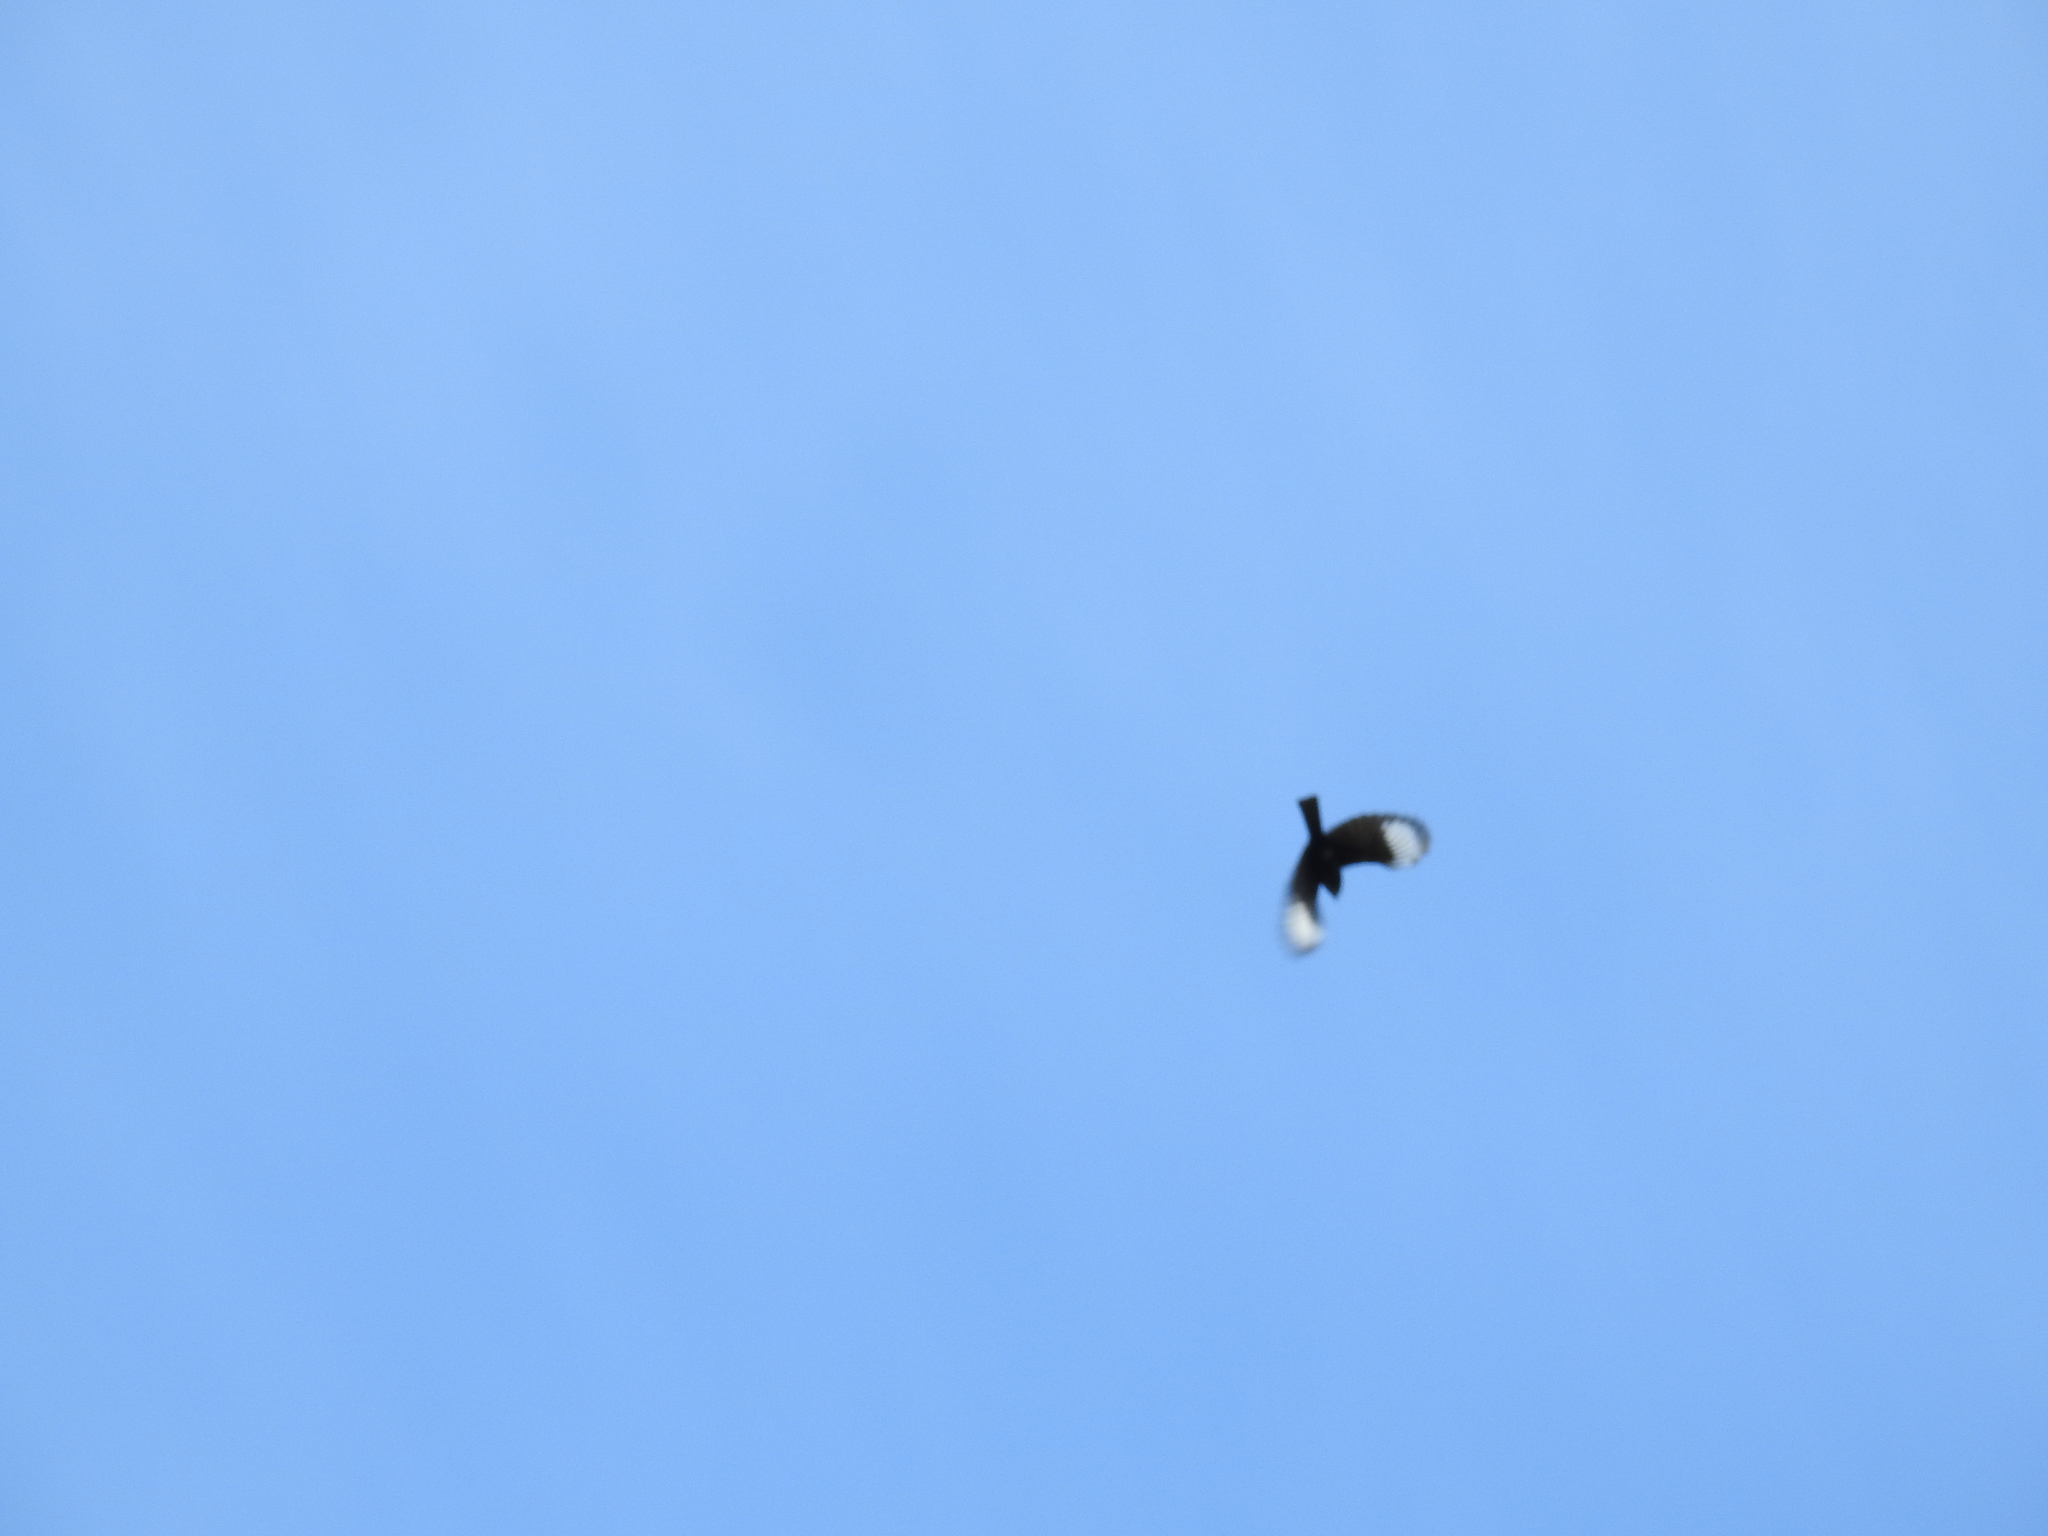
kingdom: Animalia
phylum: Chordata
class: Aves
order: Passeriformes
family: Ptilogonatidae
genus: Phainopepla
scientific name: Phainopepla nitens
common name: Phainopepla
